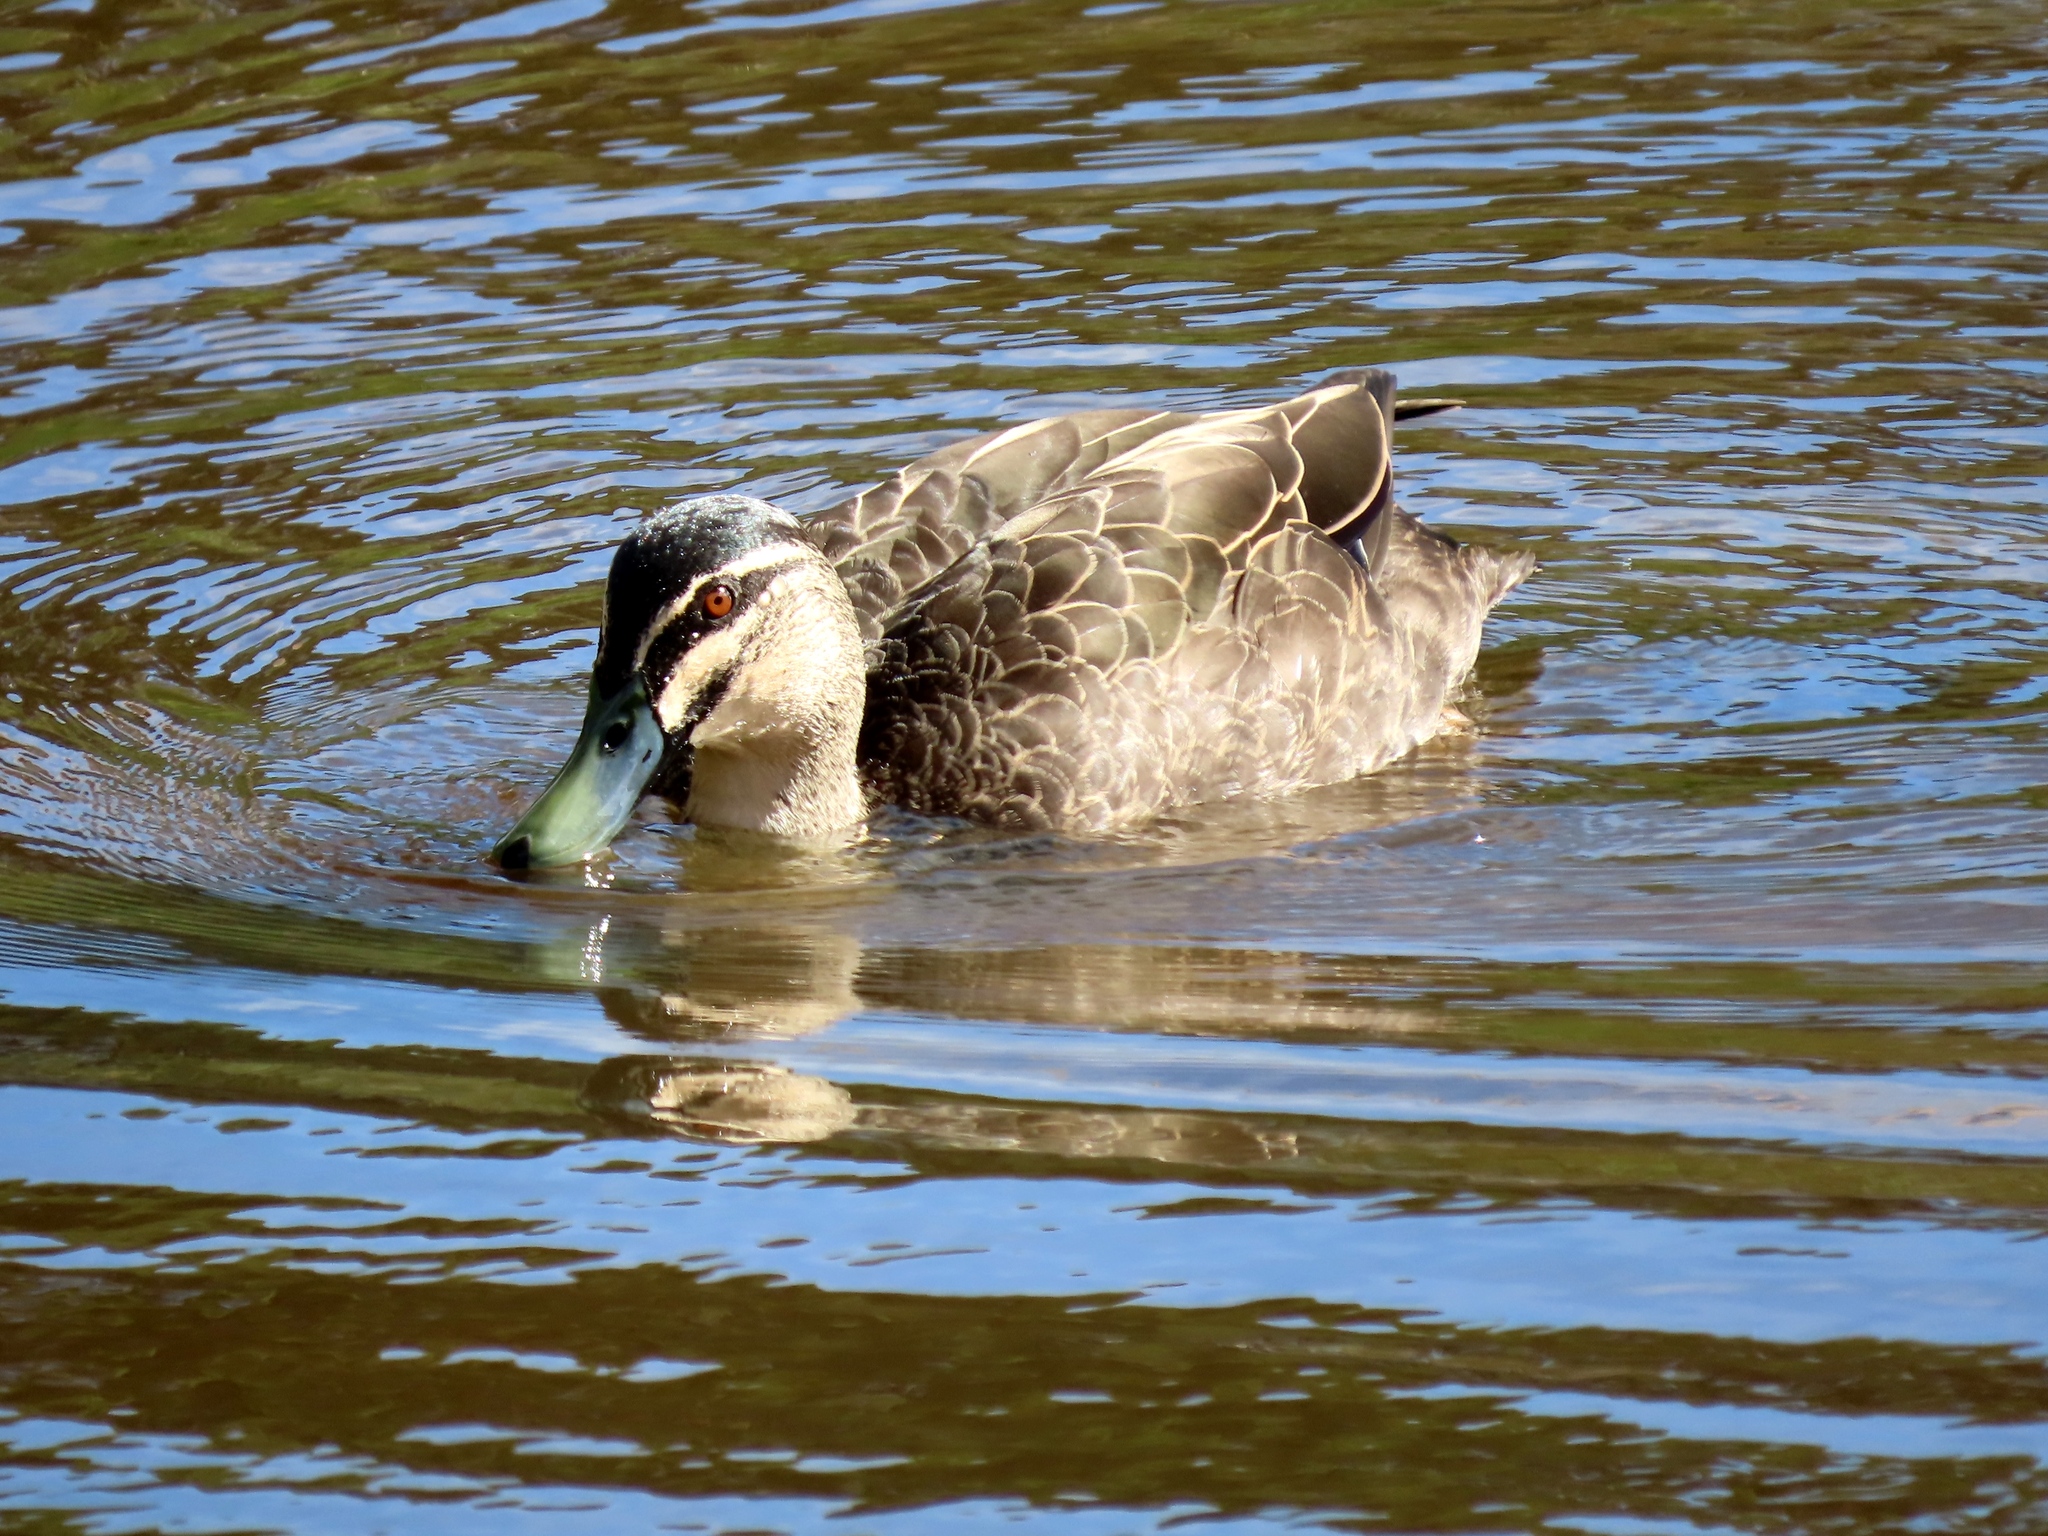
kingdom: Animalia
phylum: Chordata
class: Aves
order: Anseriformes
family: Anatidae
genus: Anas
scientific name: Anas superciliosa
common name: Pacific black duck
